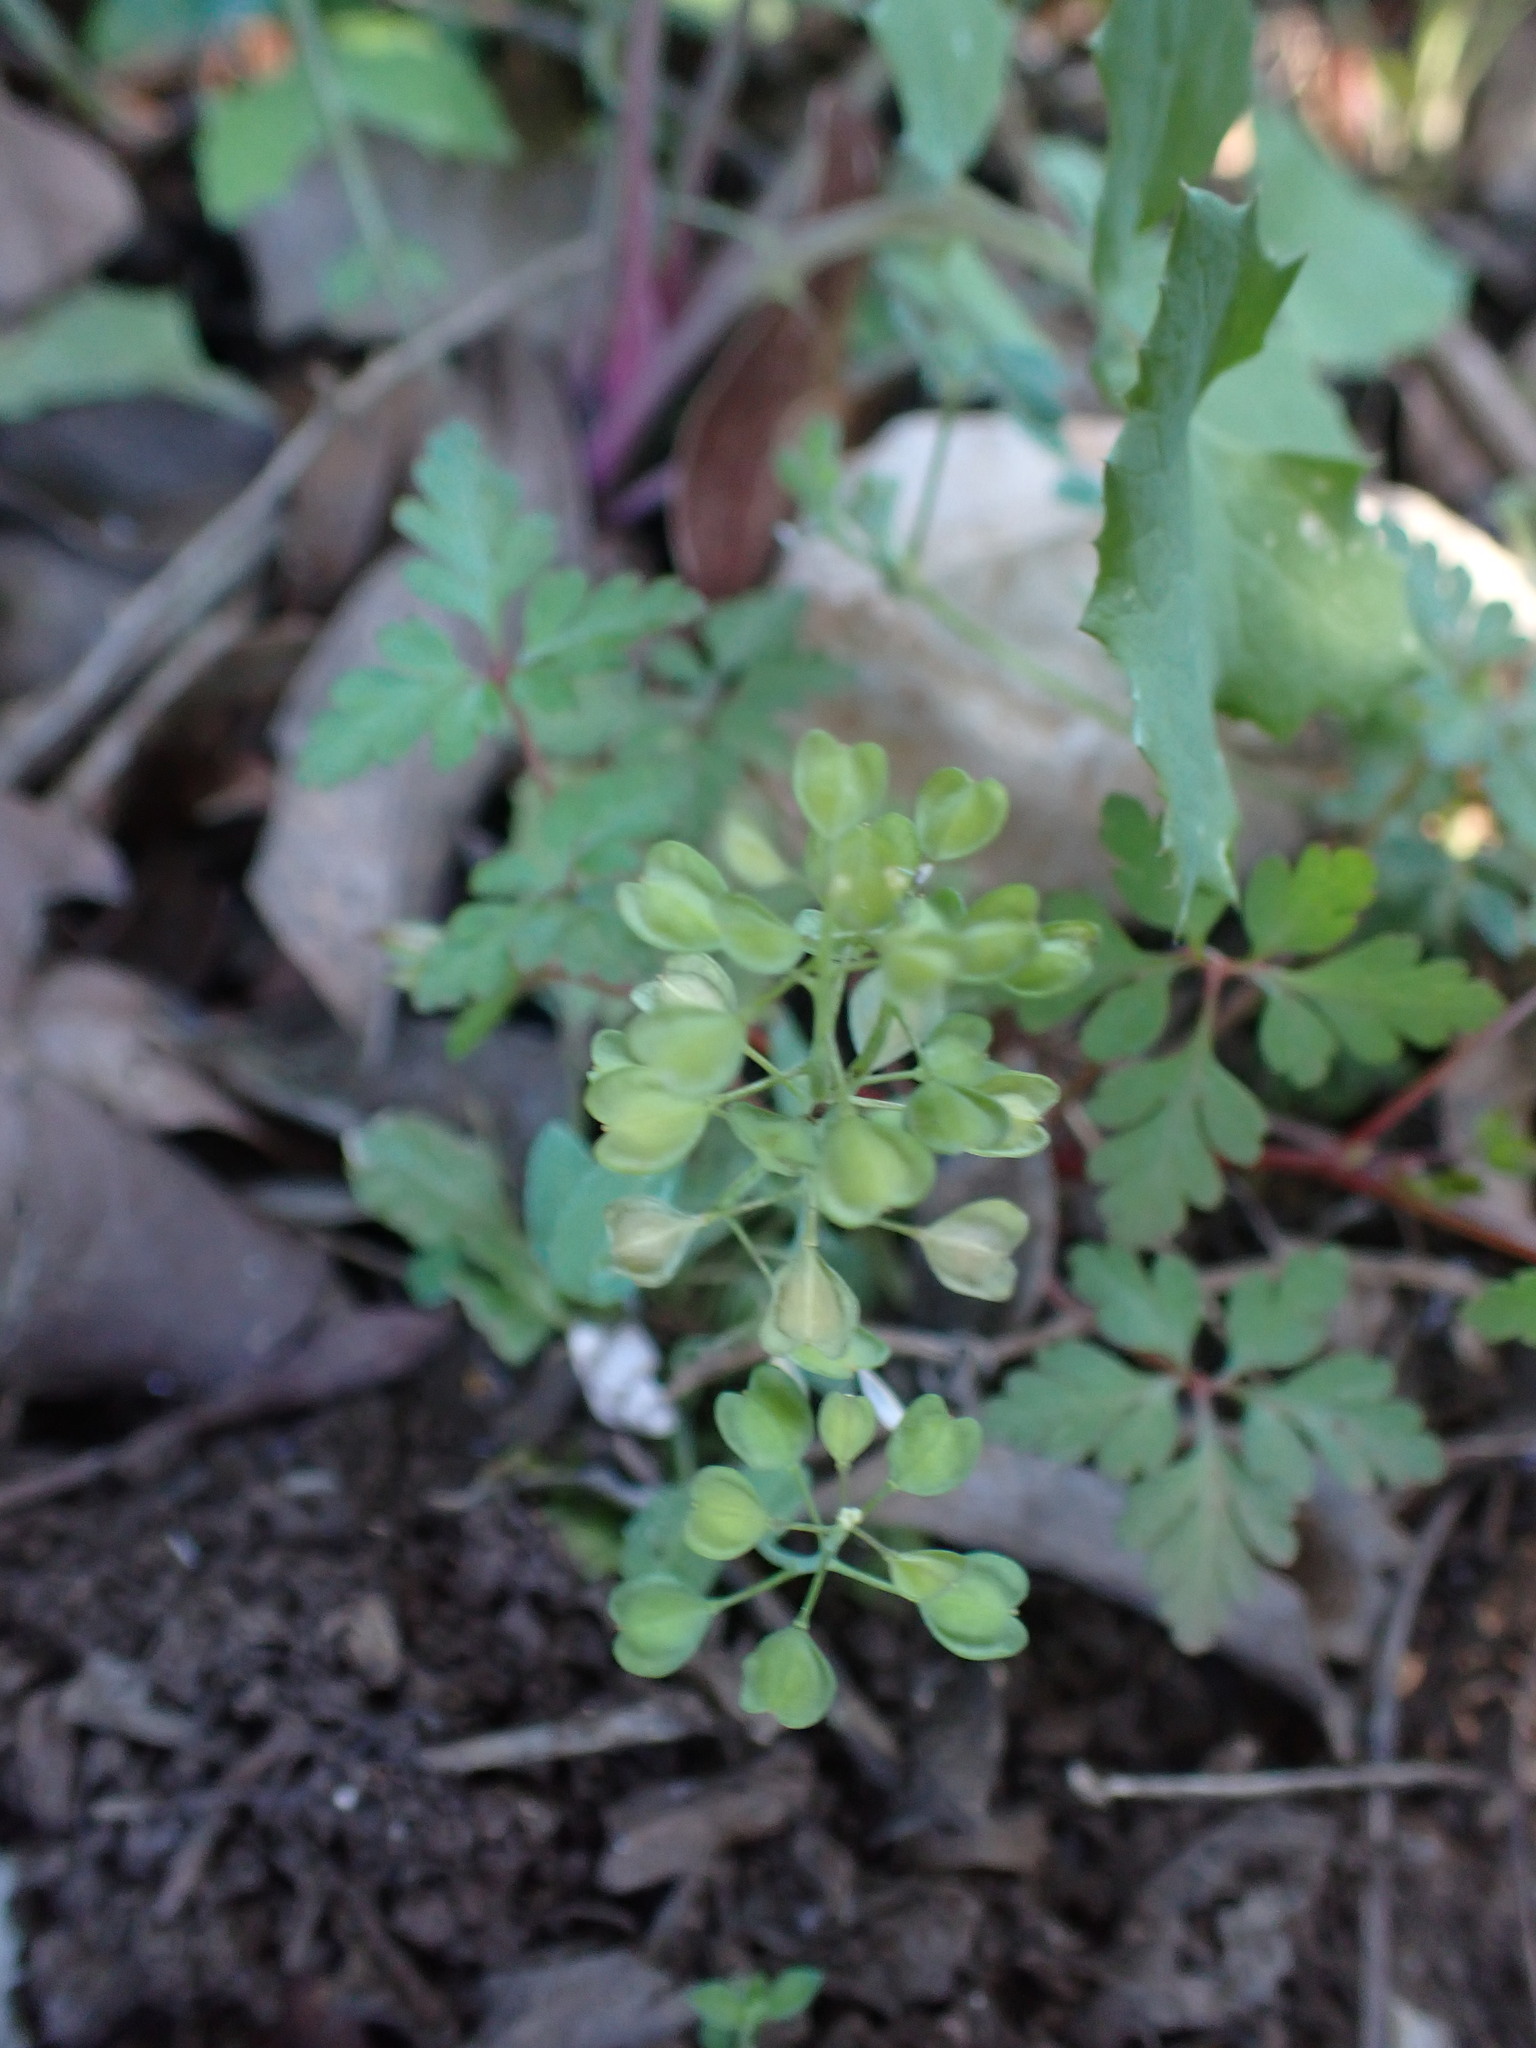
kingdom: Plantae
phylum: Tracheophyta
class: Magnoliopsida
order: Brassicales
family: Brassicaceae
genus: Noccaea
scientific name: Noccaea perfoliata
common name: Perfoliate pennycress
